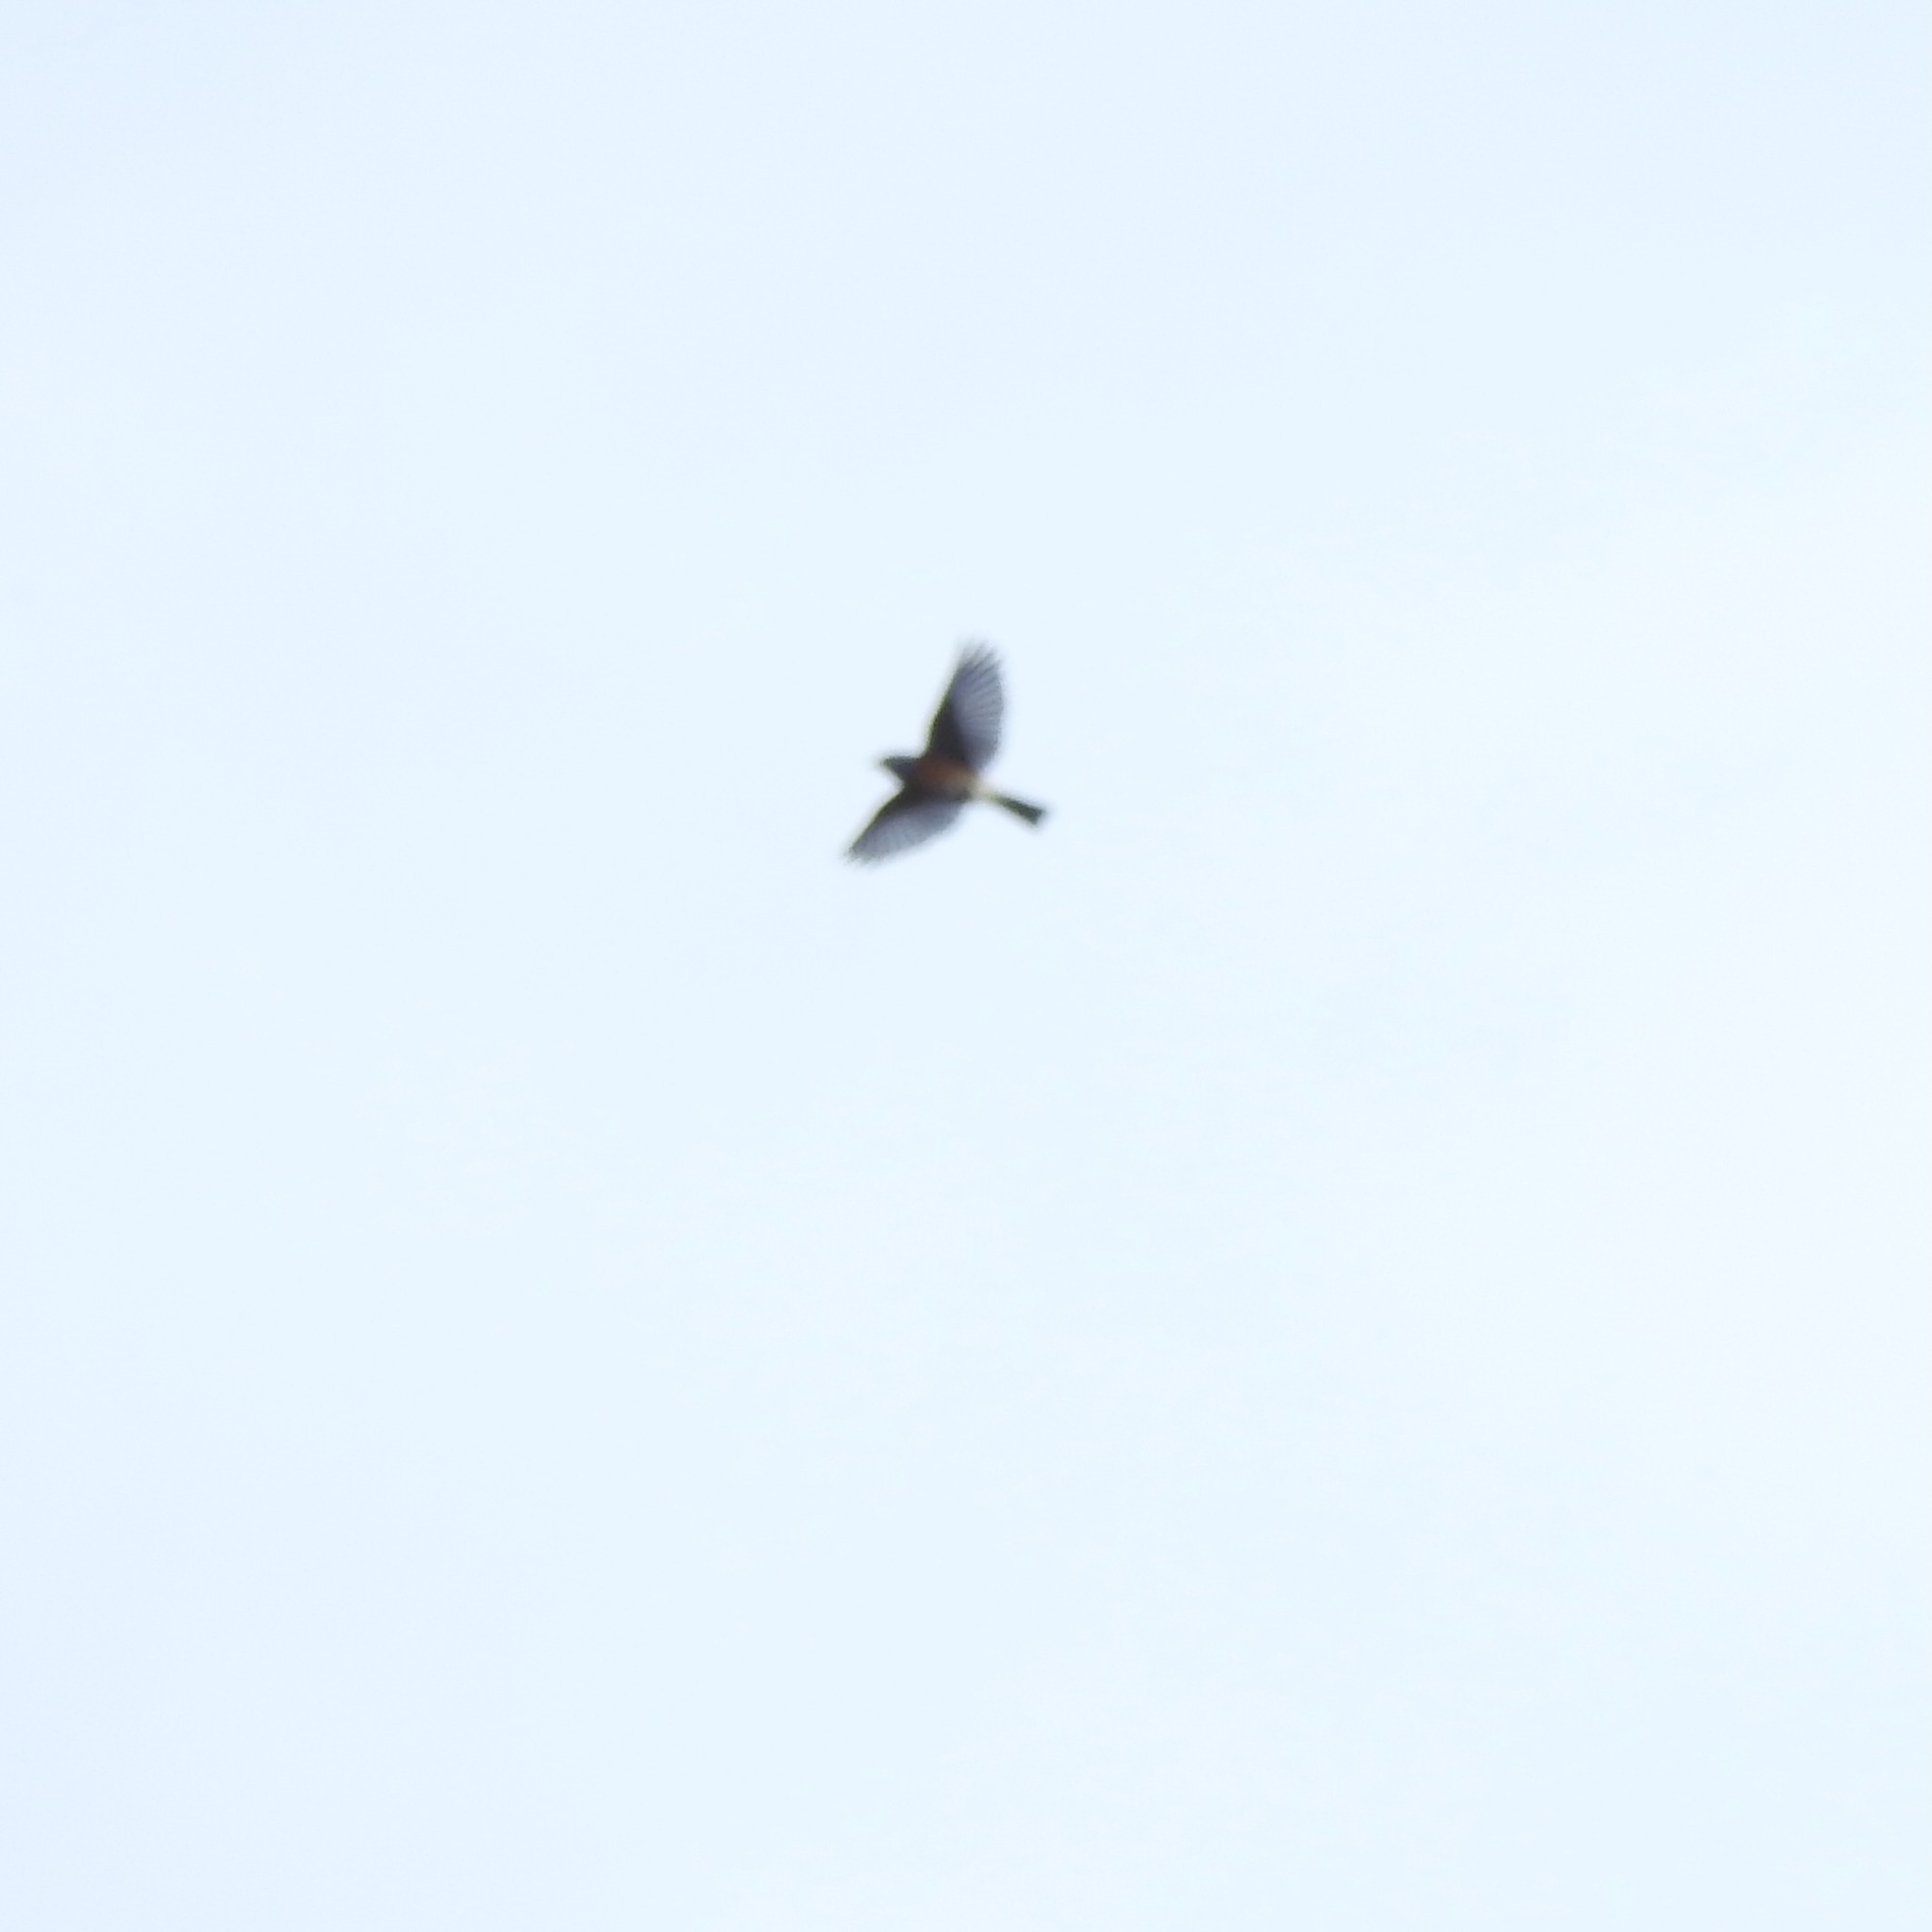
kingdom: Animalia
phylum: Chordata
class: Aves
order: Passeriformes
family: Turdidae
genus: Turdus
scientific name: Turdus migratorius
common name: American robin
